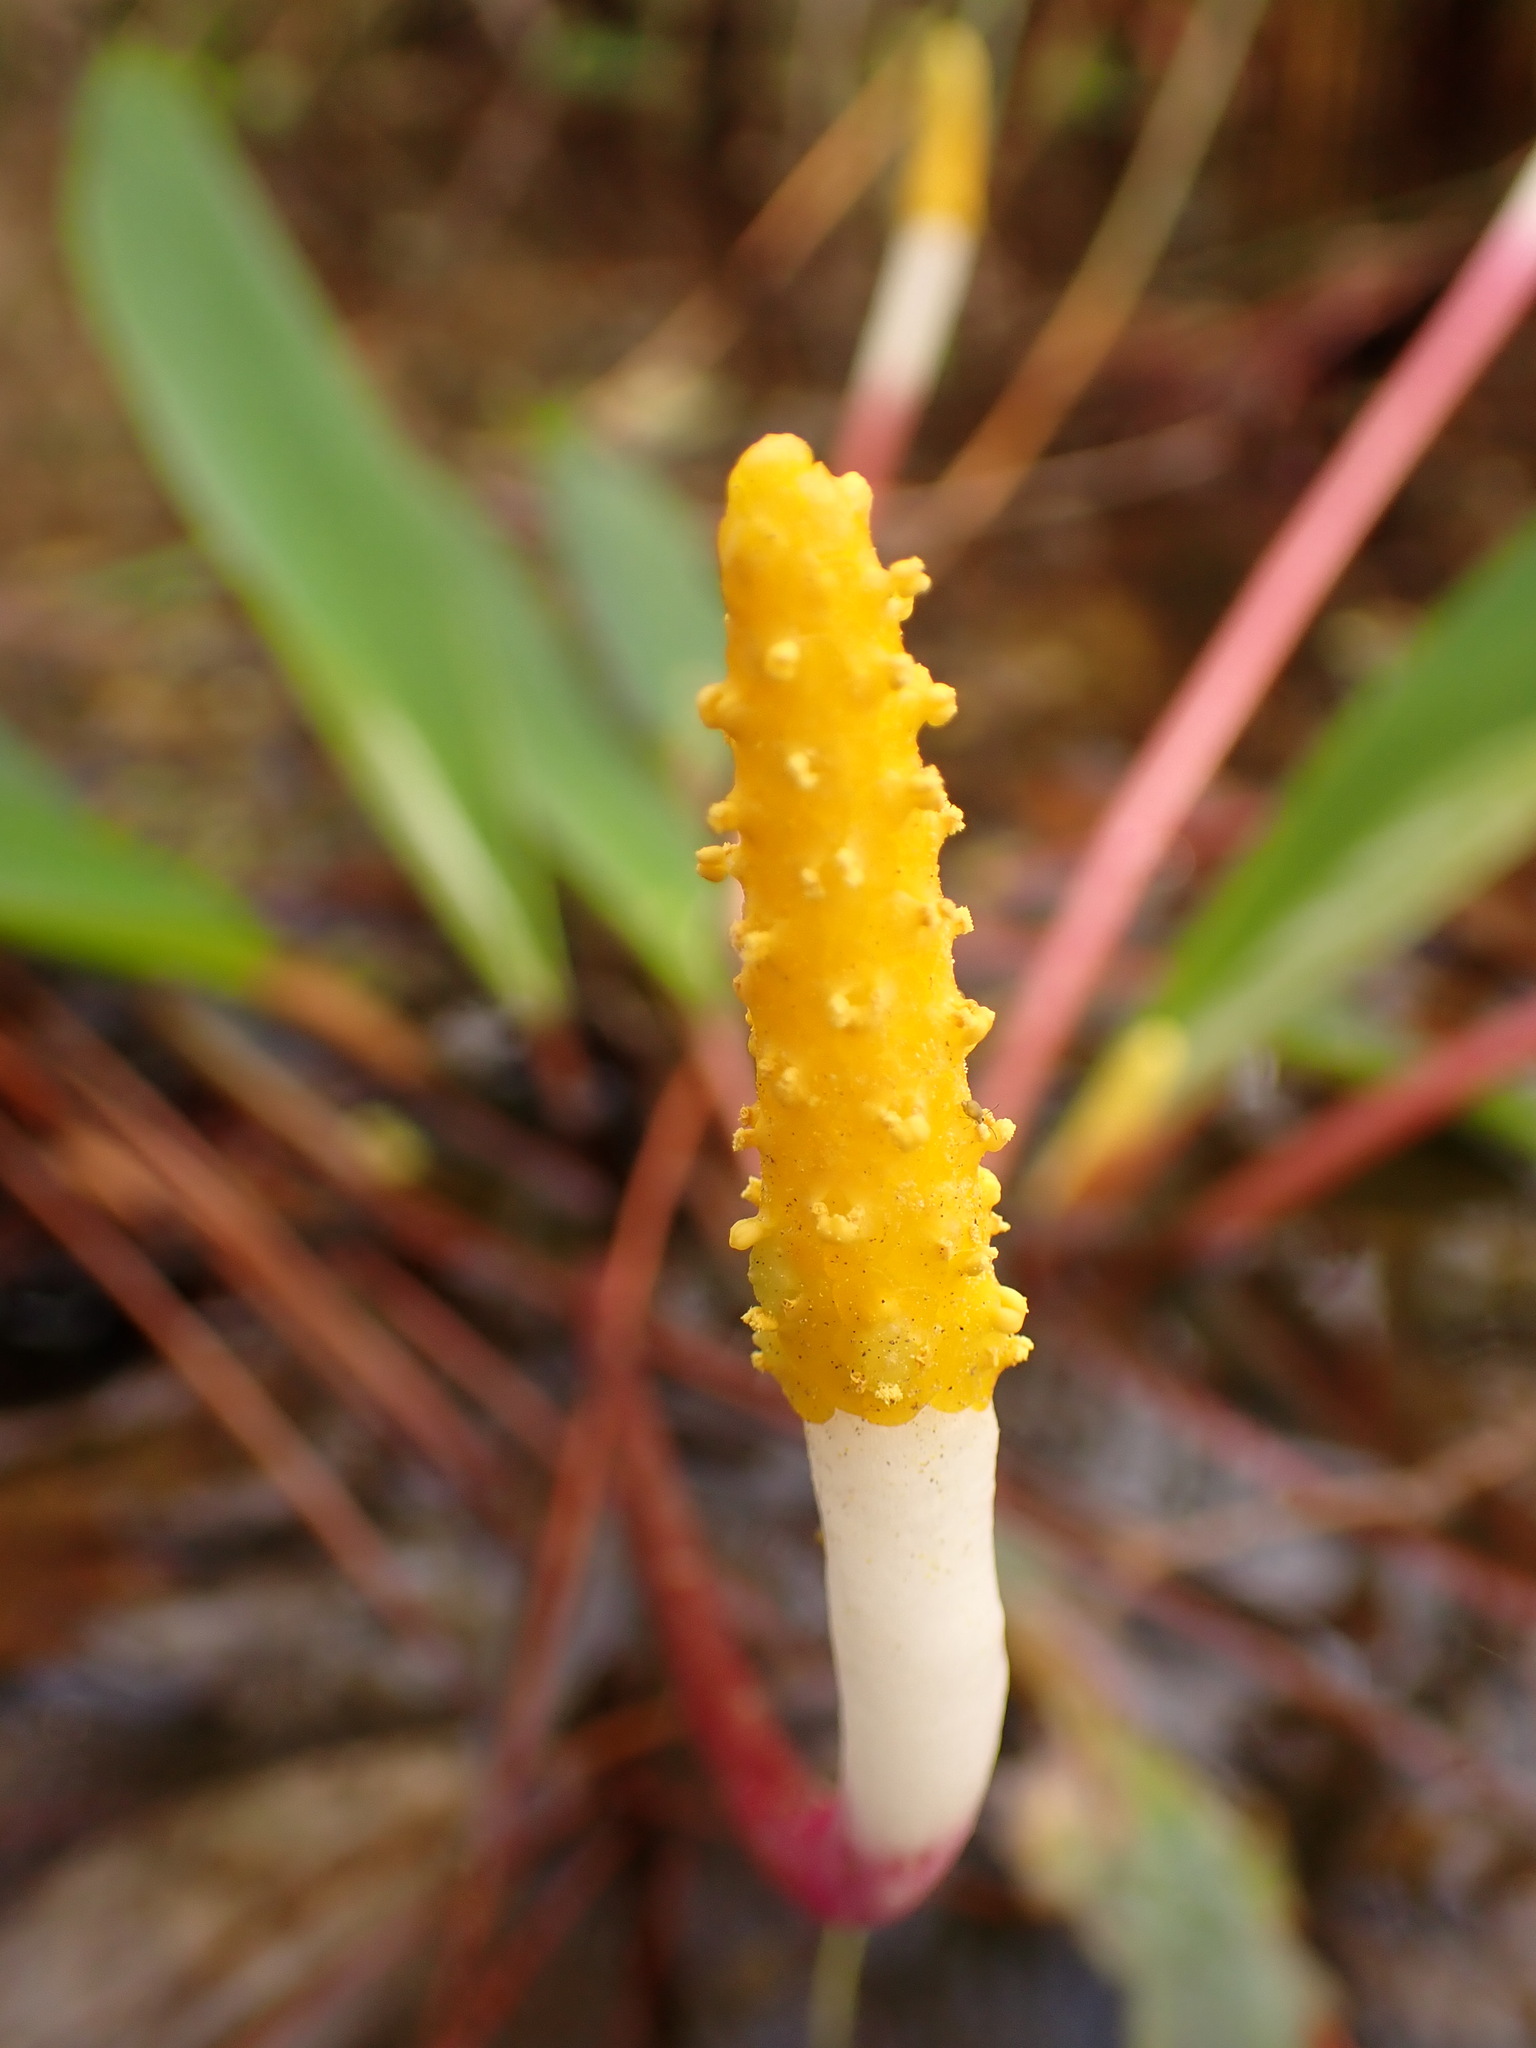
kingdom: Plantae
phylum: Tracheophyta
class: Liliopsida
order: Alismatales
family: Araceae
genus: Orontium
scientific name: Orontium aquaticum
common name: Golden-club
